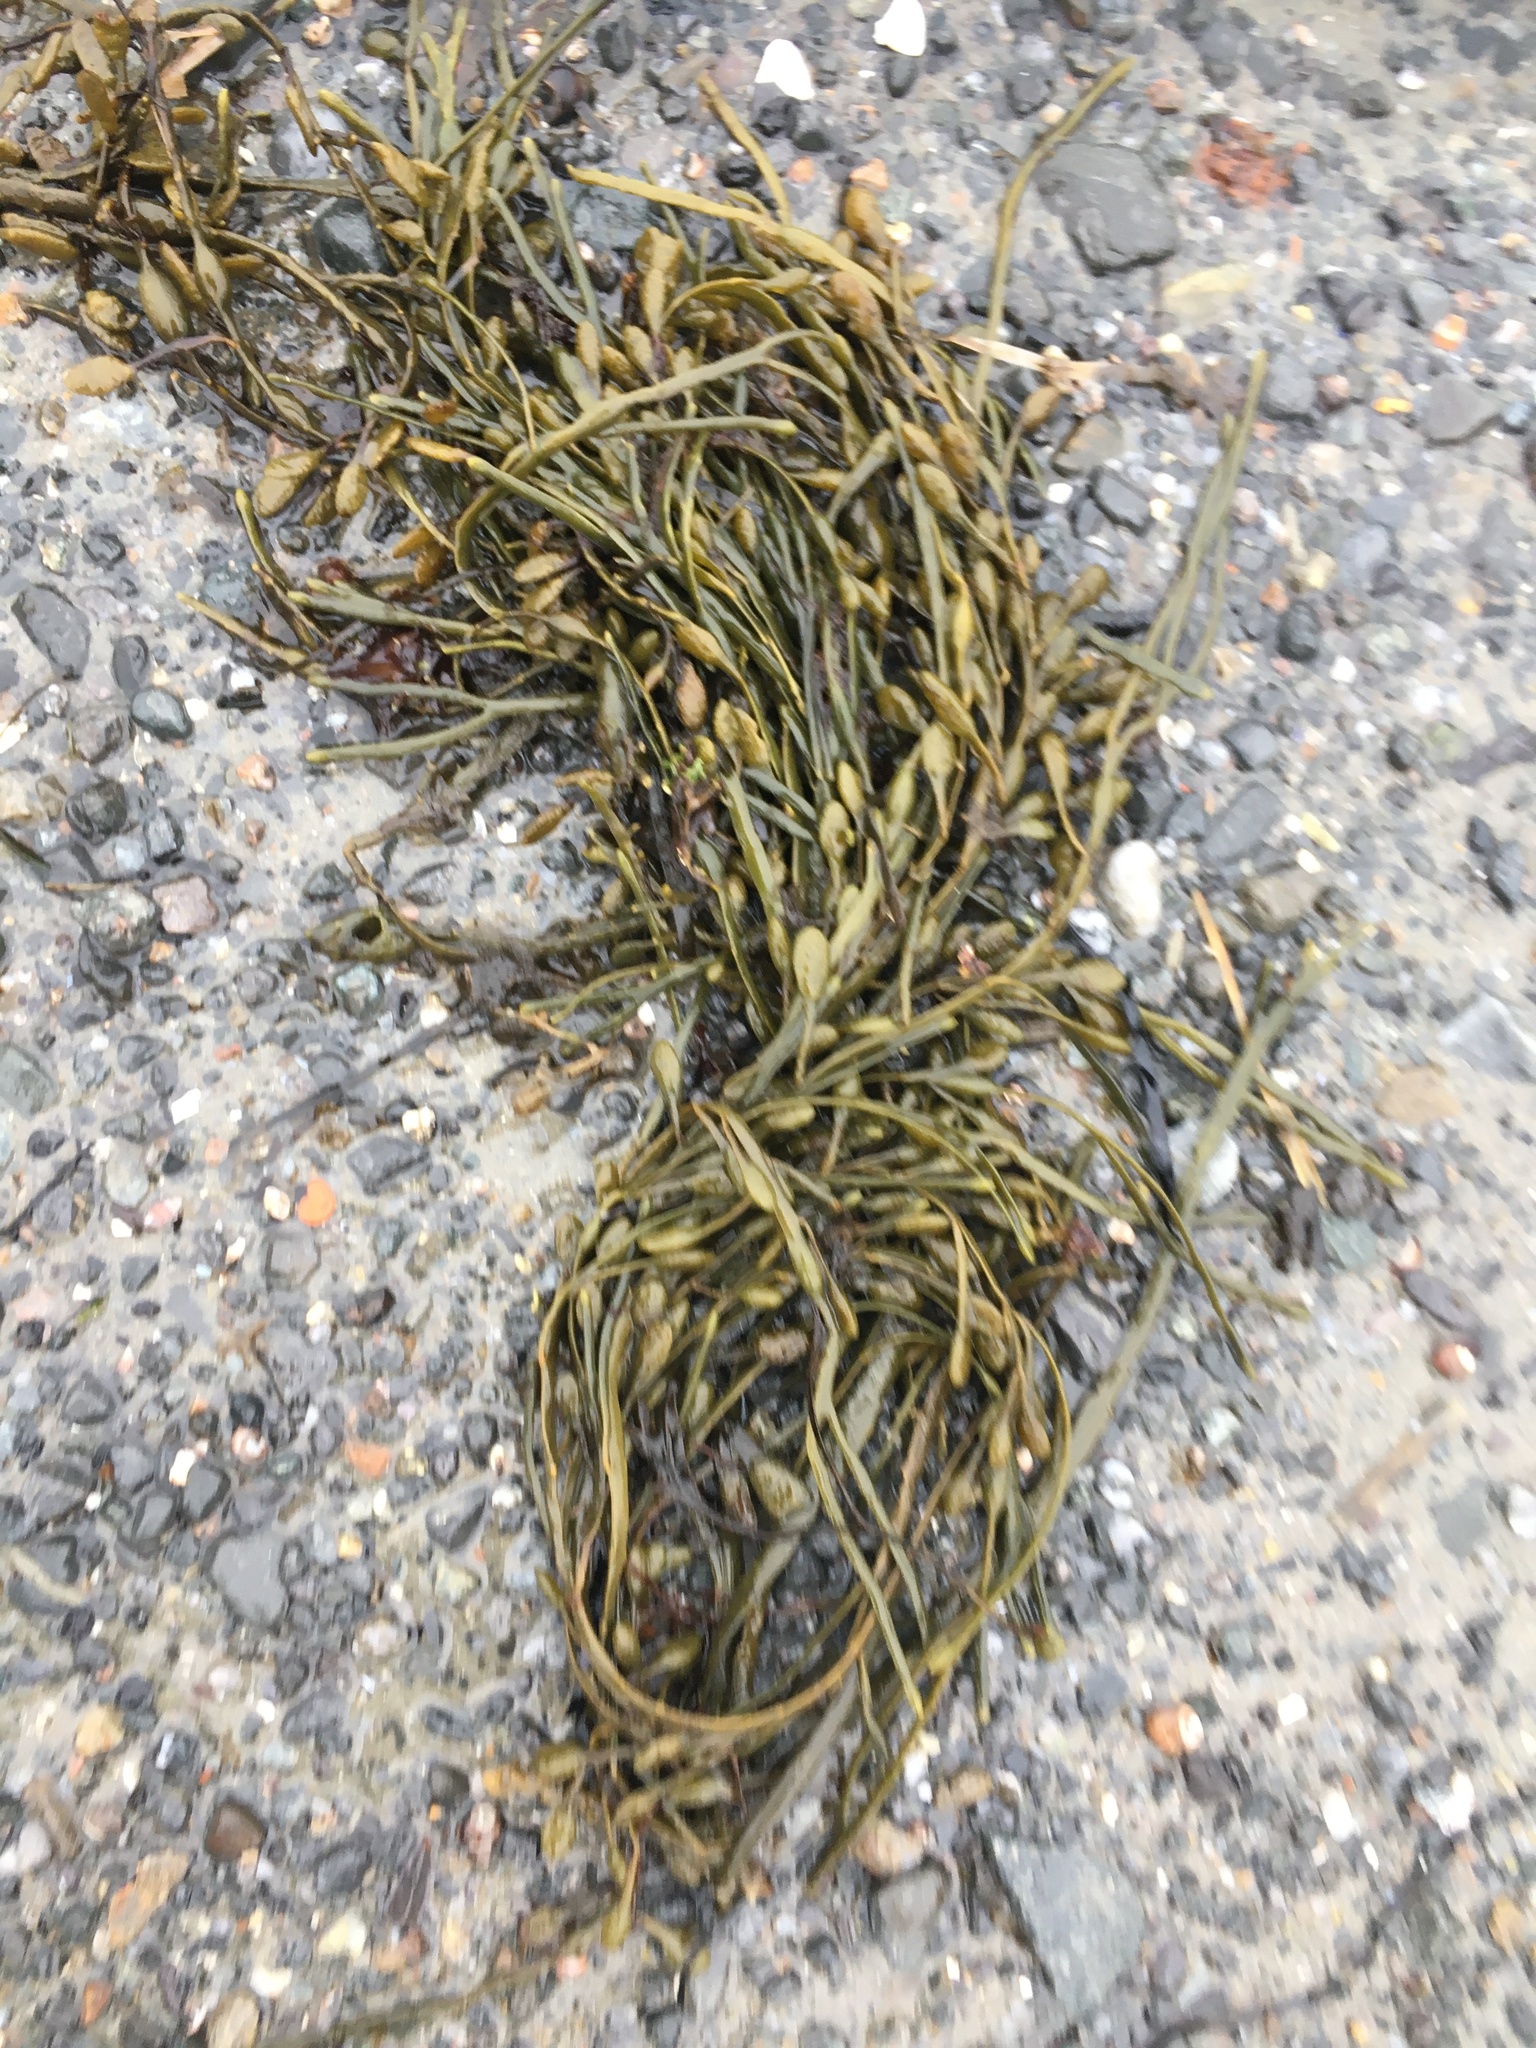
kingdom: Chromista
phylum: Ochrophyta
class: Phaeophyceae
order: Fucales
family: Fucaceae
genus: Ascophyllum
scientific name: Ascophyllum nodosum
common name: Knotted wrack
